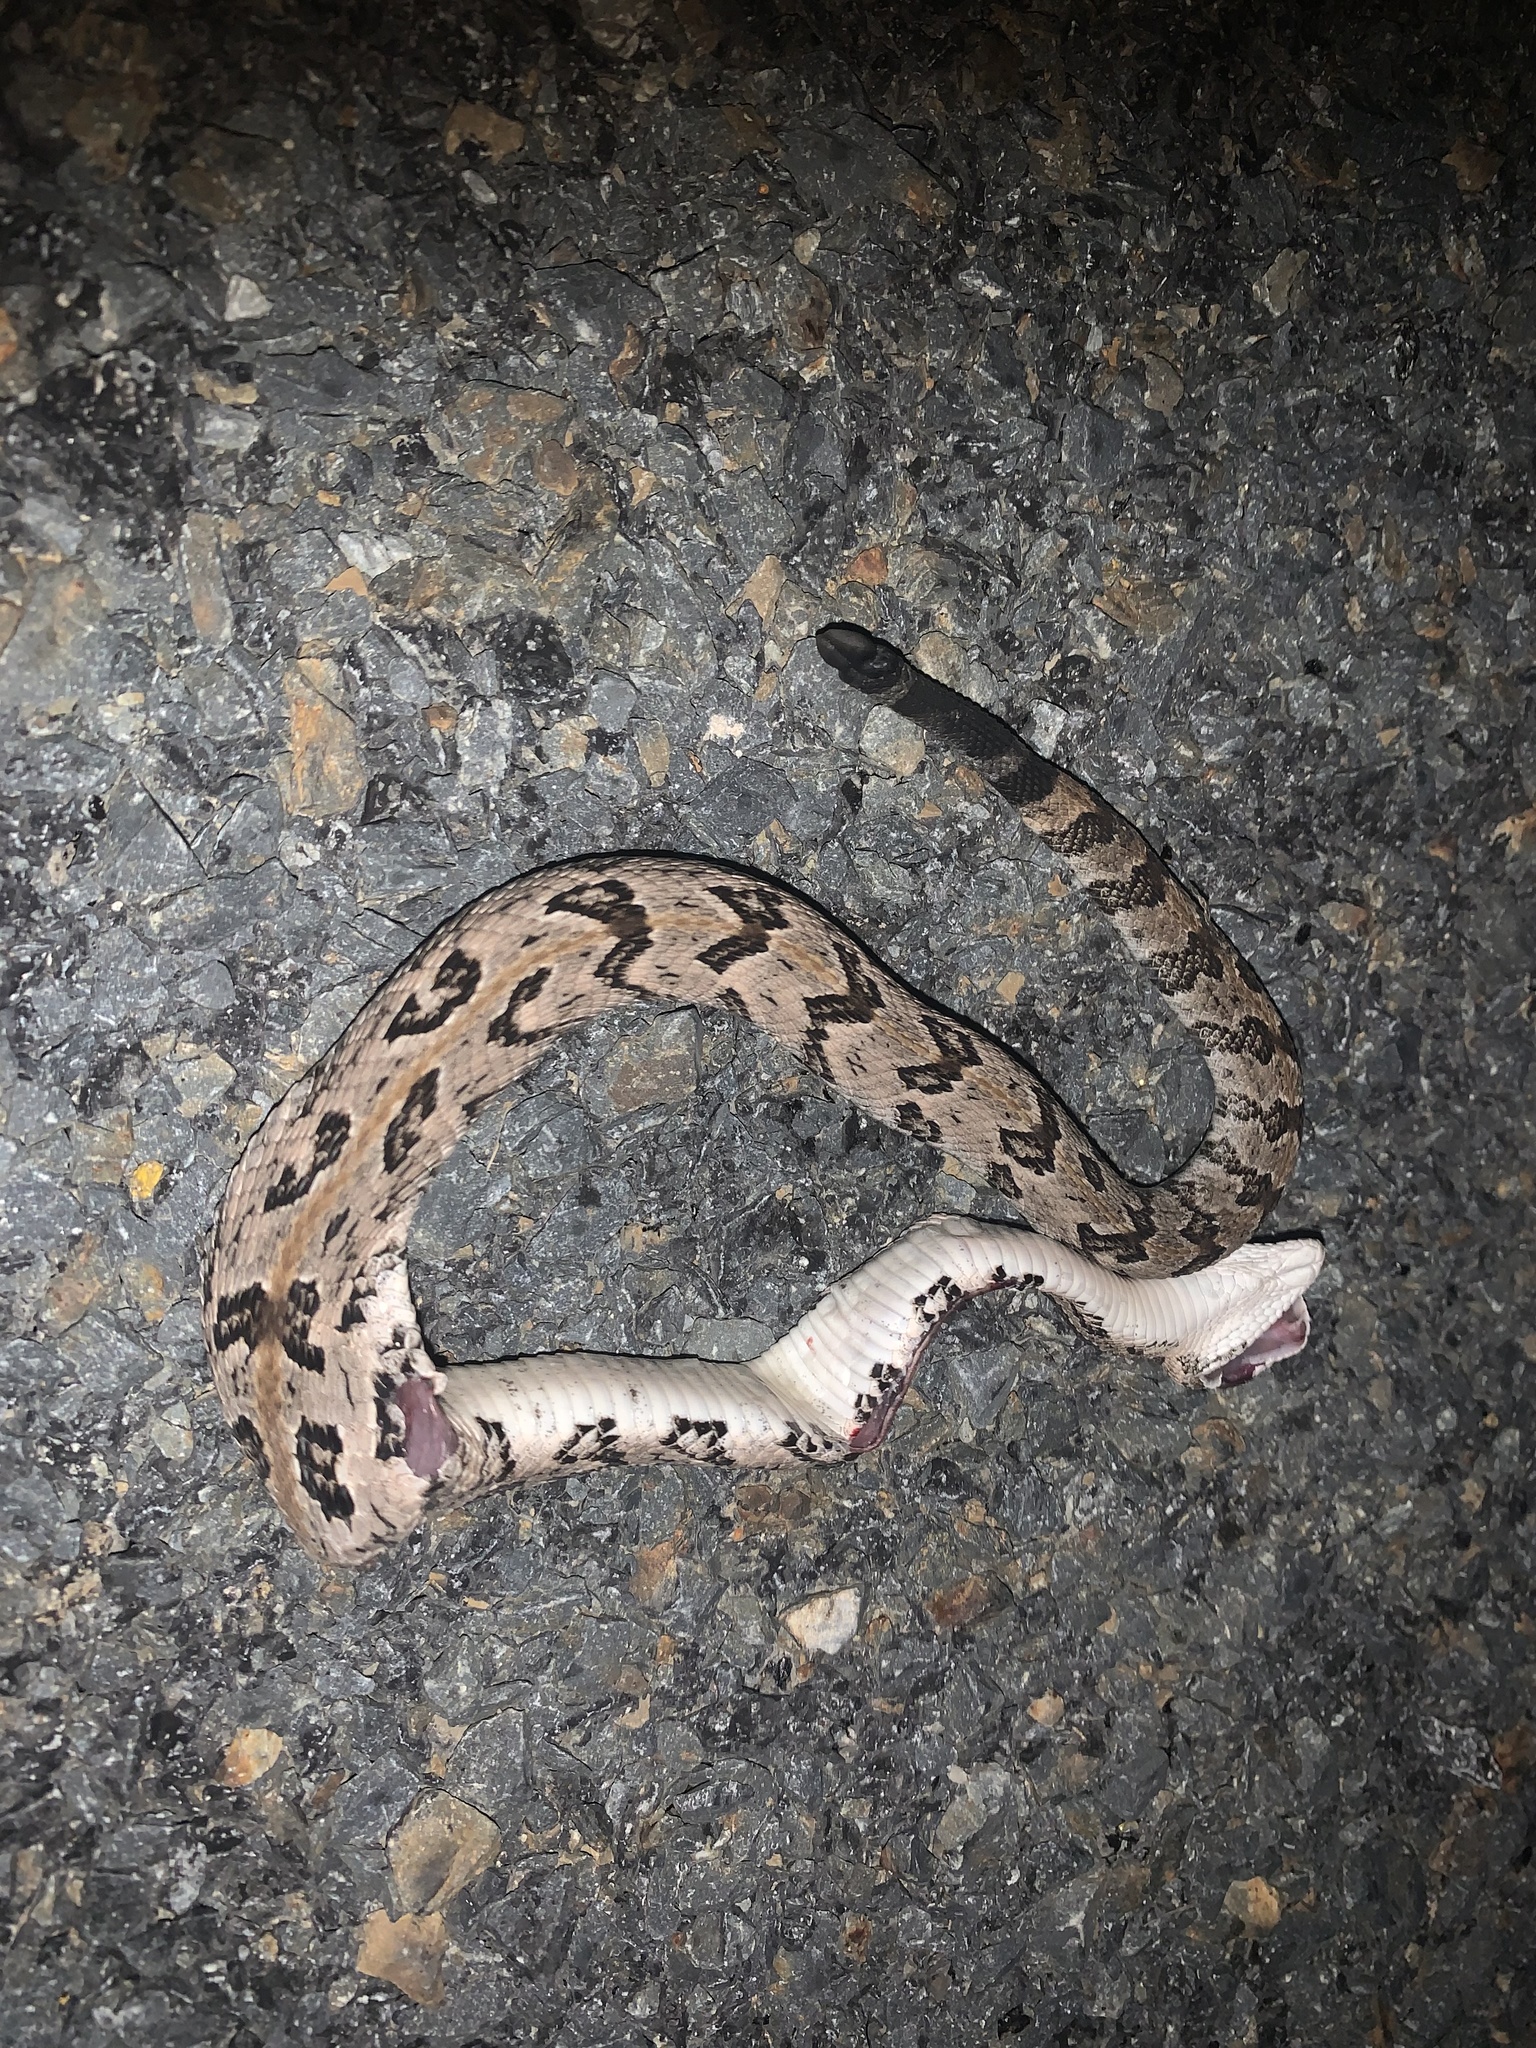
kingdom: Animalia
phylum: Chordata
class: Squamata
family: Viperidae
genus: Crotalus
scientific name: Crotalus horridus
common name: Timber rattlesnake
